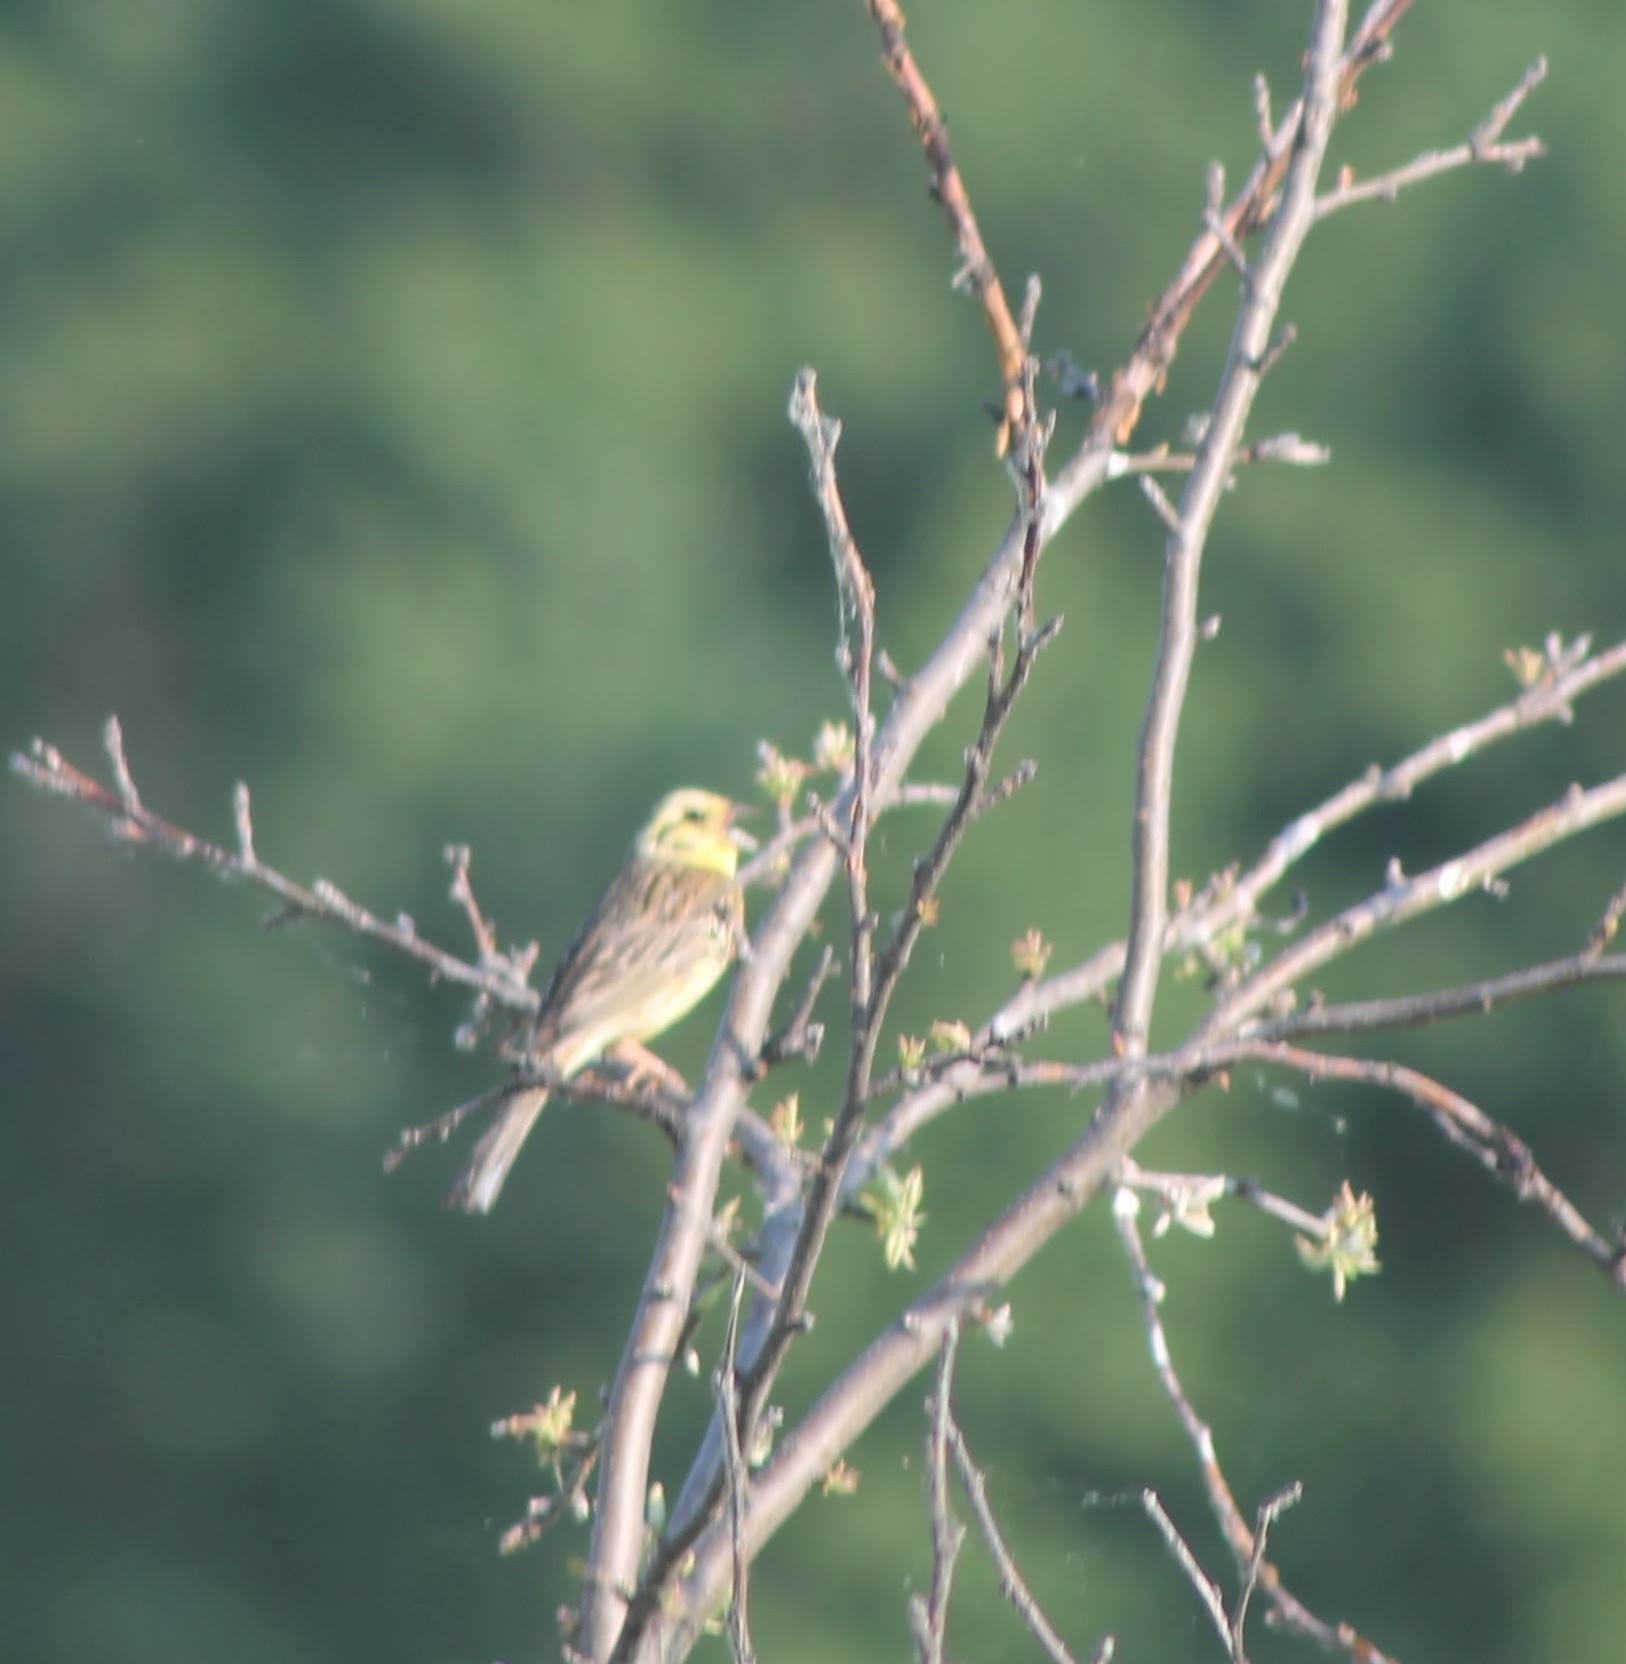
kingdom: Animalia
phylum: Chordata
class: Aves
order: Passeriformes
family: Emberizidae
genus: Emberiza
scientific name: Emberiza citrinella
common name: Yellowhammer
